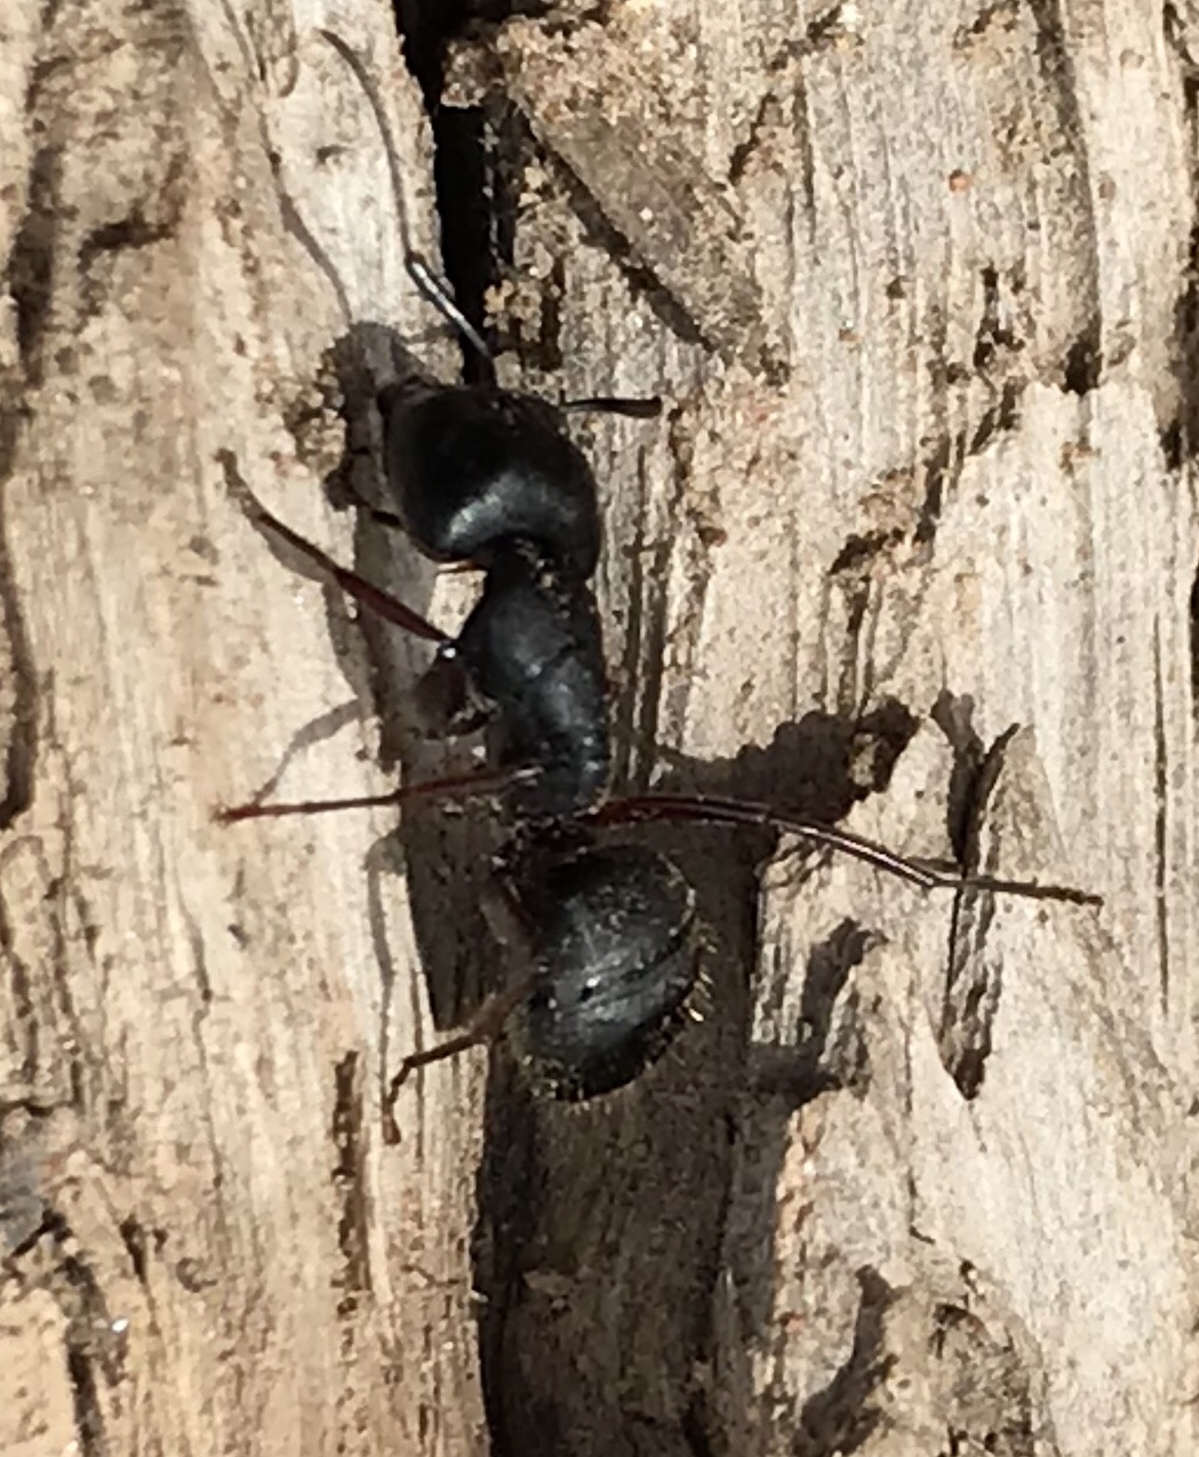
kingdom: Animalia
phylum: Arthropoda
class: Insecta
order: Hymenoptera
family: Formicidae
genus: Camponotus
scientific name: Camponotus modoc
